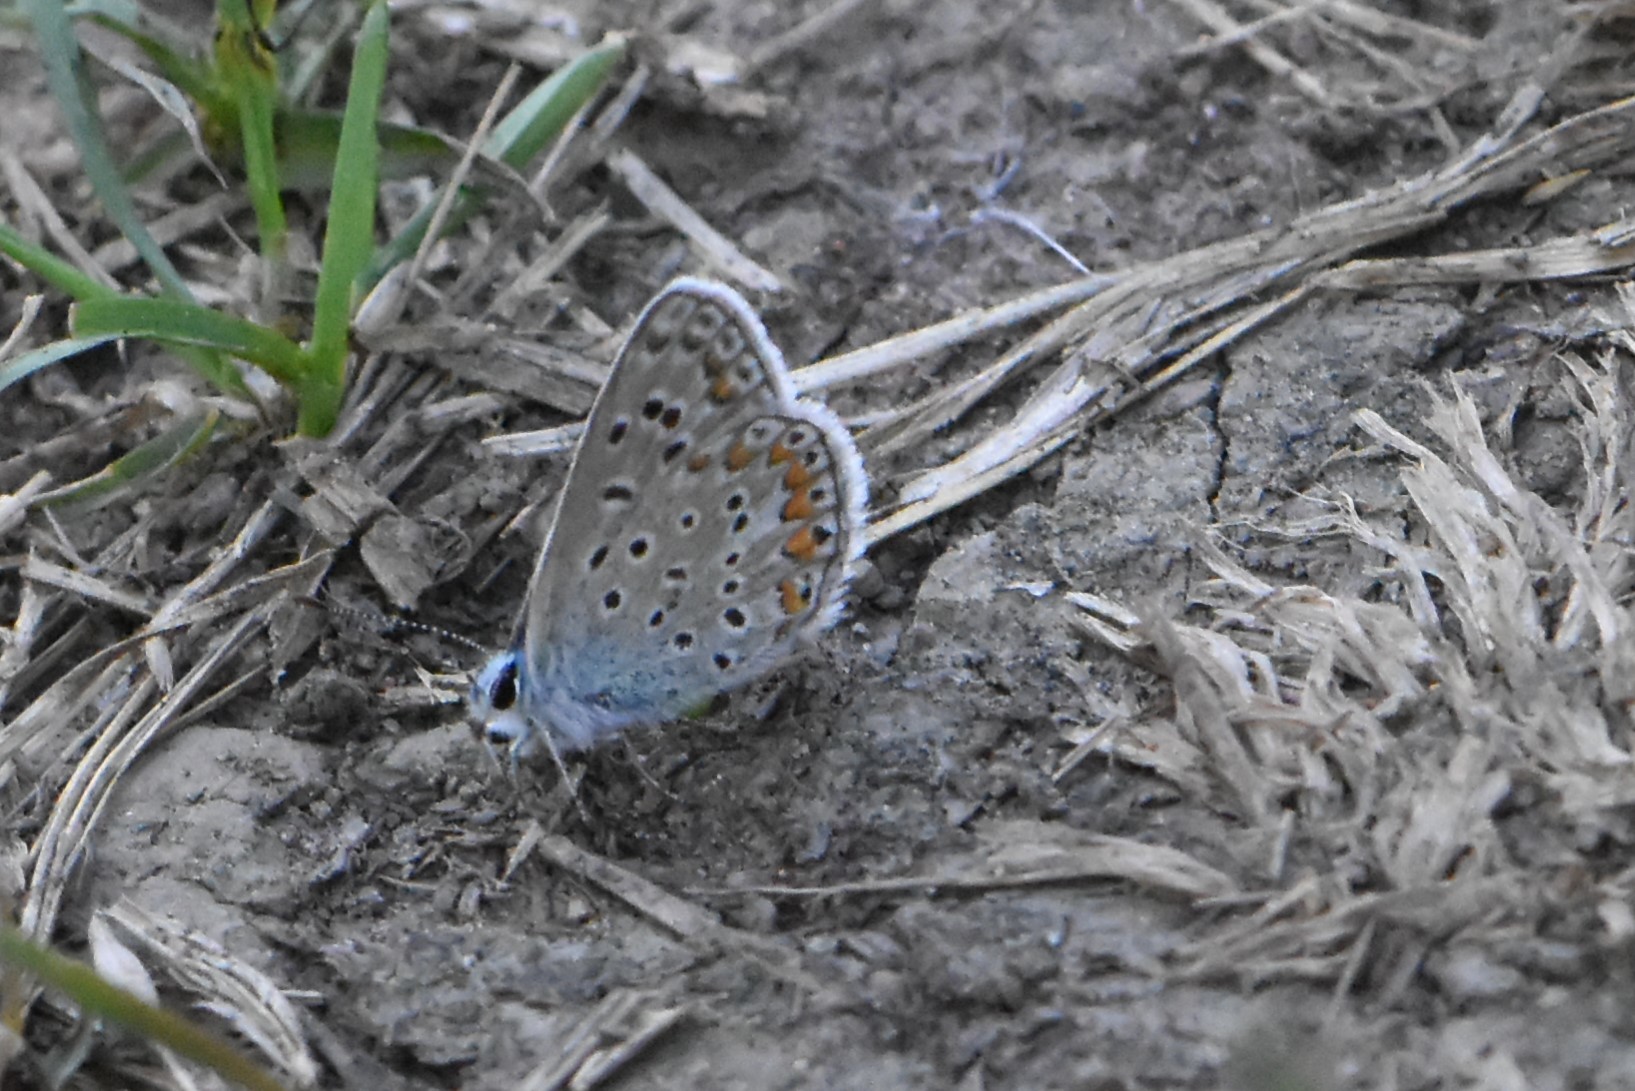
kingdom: Animalia
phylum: Arthropoda
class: Insecta
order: Lepidoptera
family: Lycaenidae
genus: Polyommatus
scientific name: Polyommatus icarus
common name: Common blue
